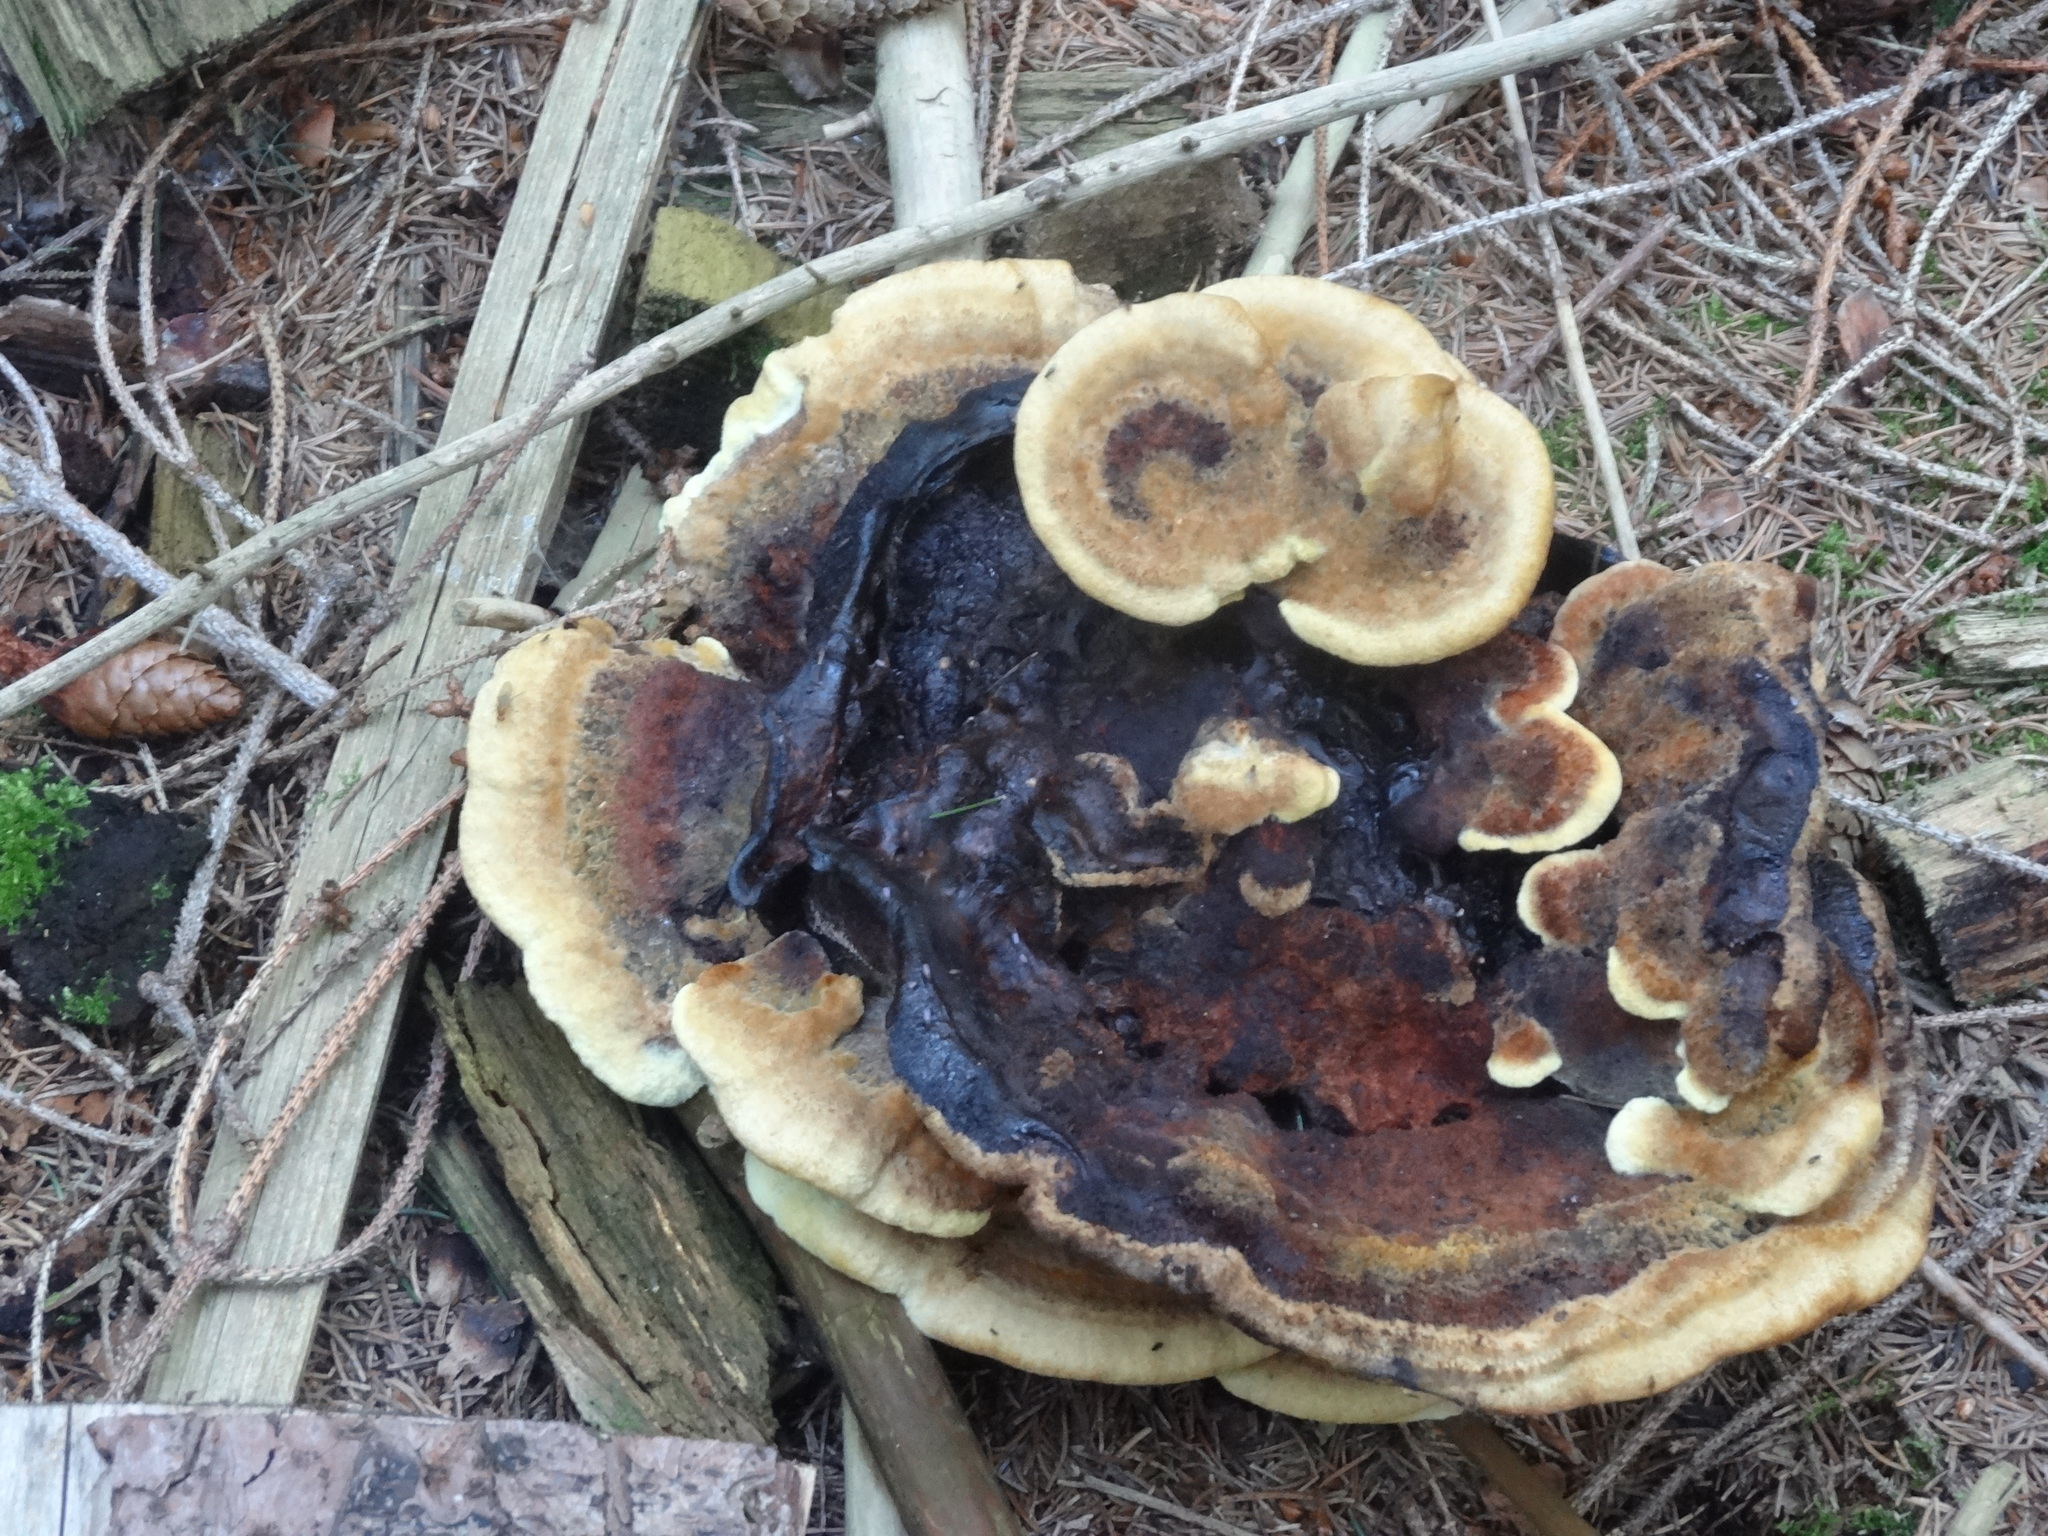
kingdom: Fungi
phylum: Basidiomycota
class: Agaricomycetes
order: Polyporales
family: Laetiporaceae
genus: Phaeolus
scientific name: Phaeolus schweinitzii
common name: Dyer's mazegill
